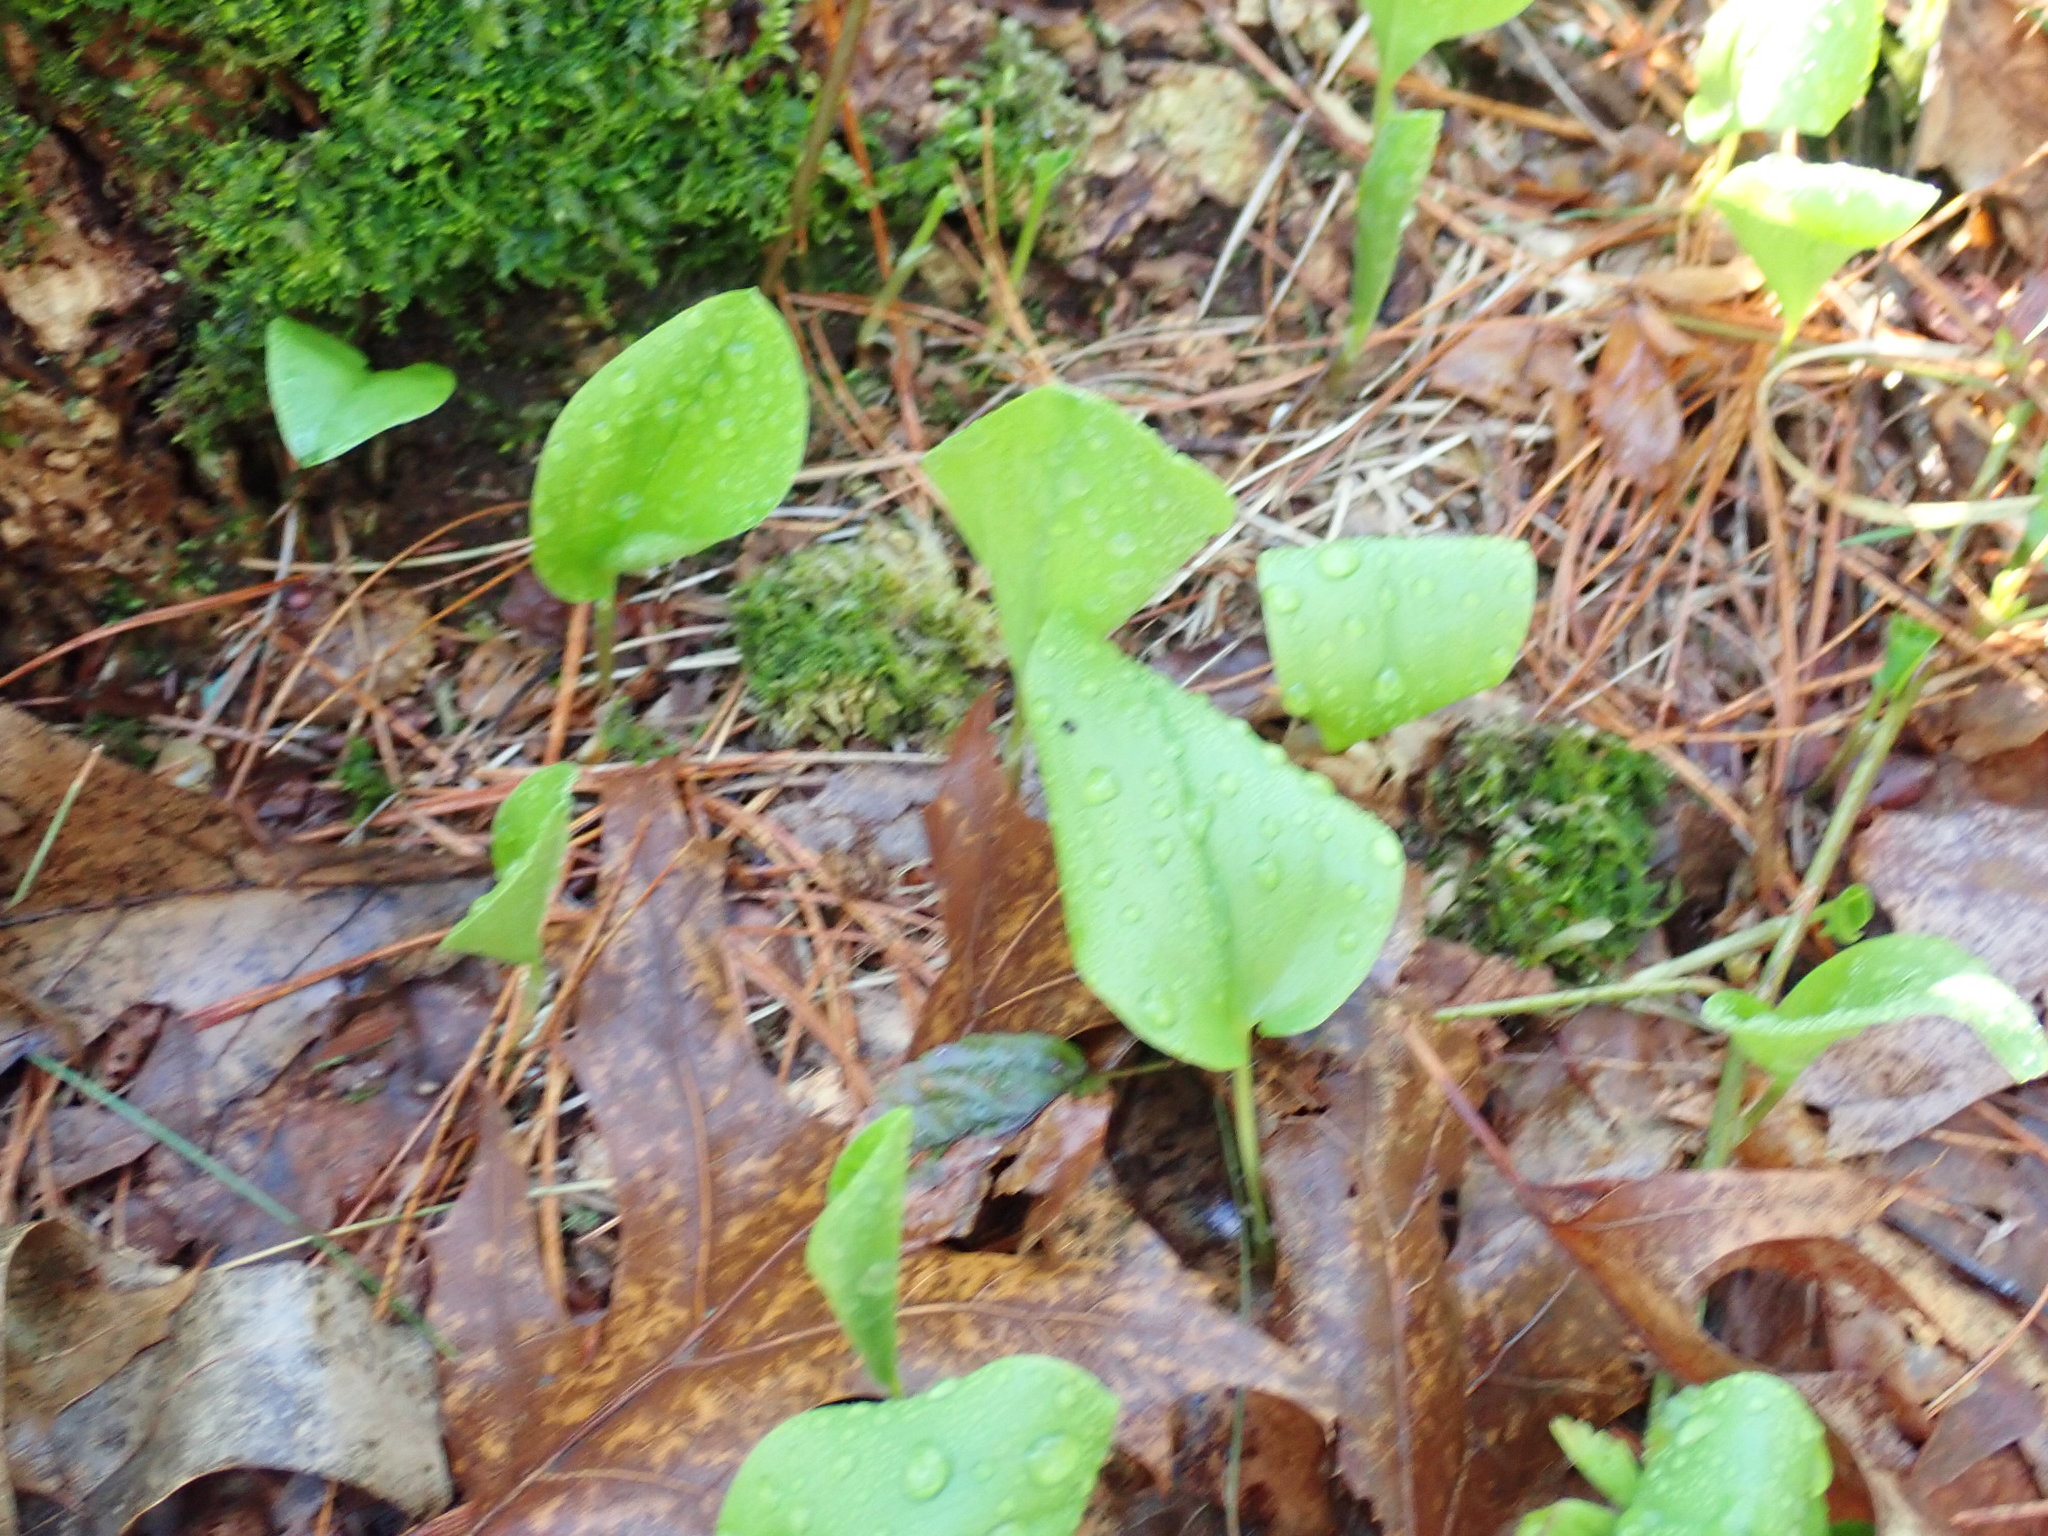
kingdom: Plantae
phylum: Tracheophyta
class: Liliopsida
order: Asparagales
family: Asparagaceae
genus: Maianthemum
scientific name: Maianthemum canadense
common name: False lily-of-the-valley
